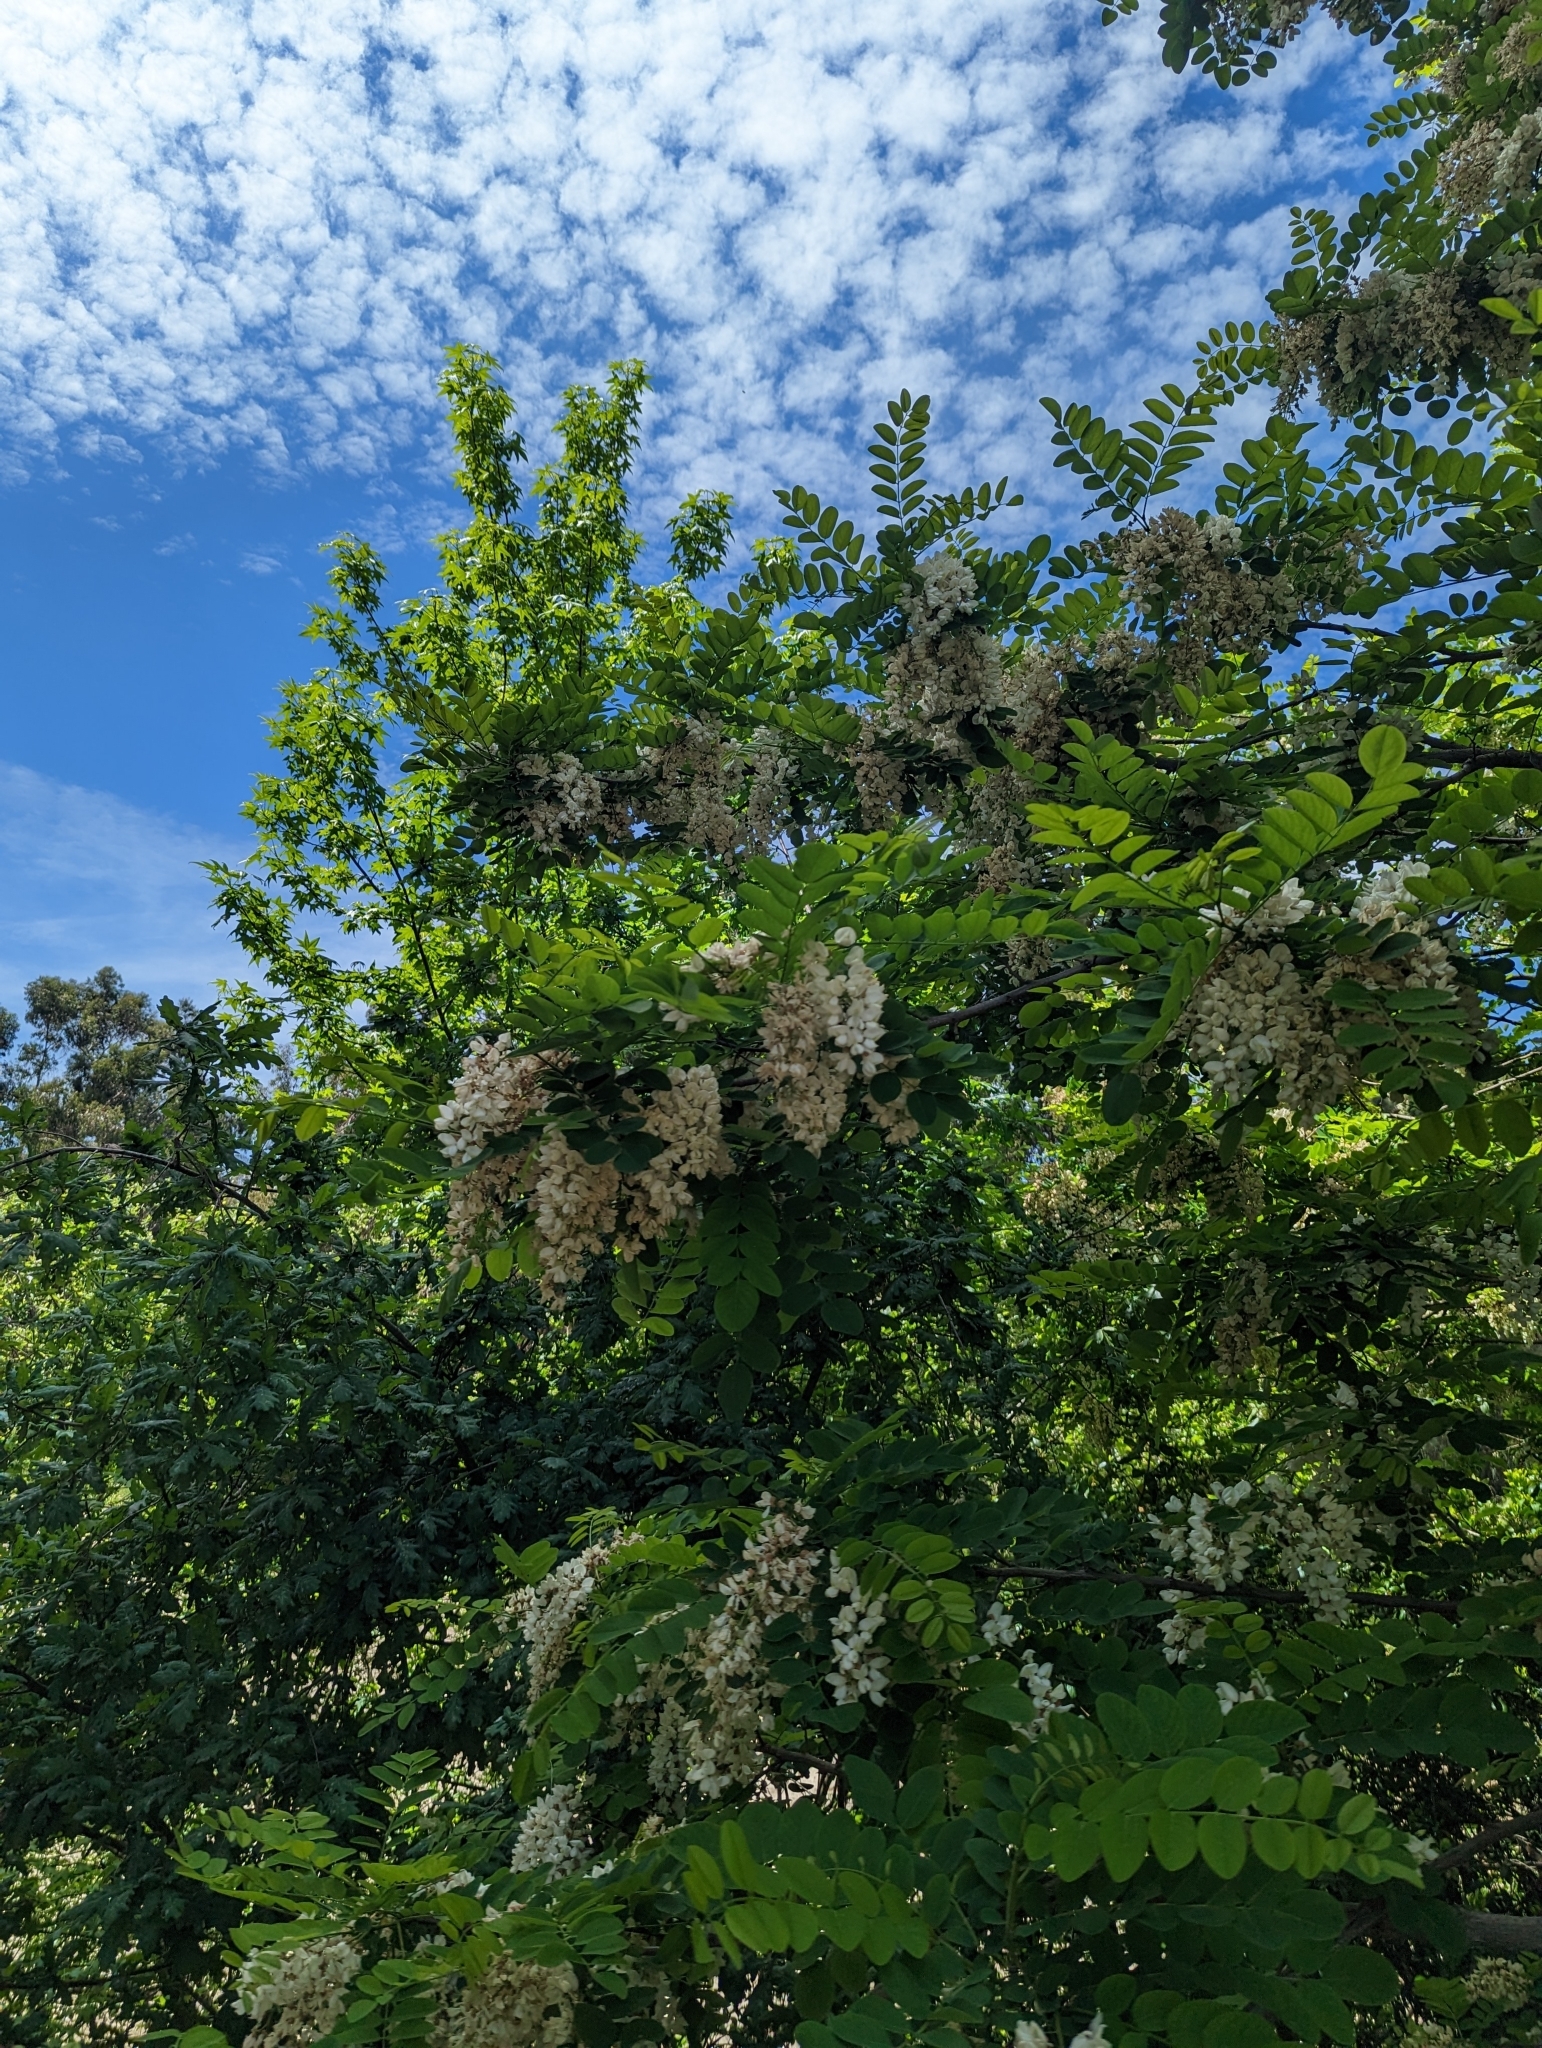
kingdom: Plantae
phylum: Tracheophyta
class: Magnoliopsida
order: Fabales
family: Fabaceae
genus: Robinia
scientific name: Robinia pseudoacacia
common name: Black locust
